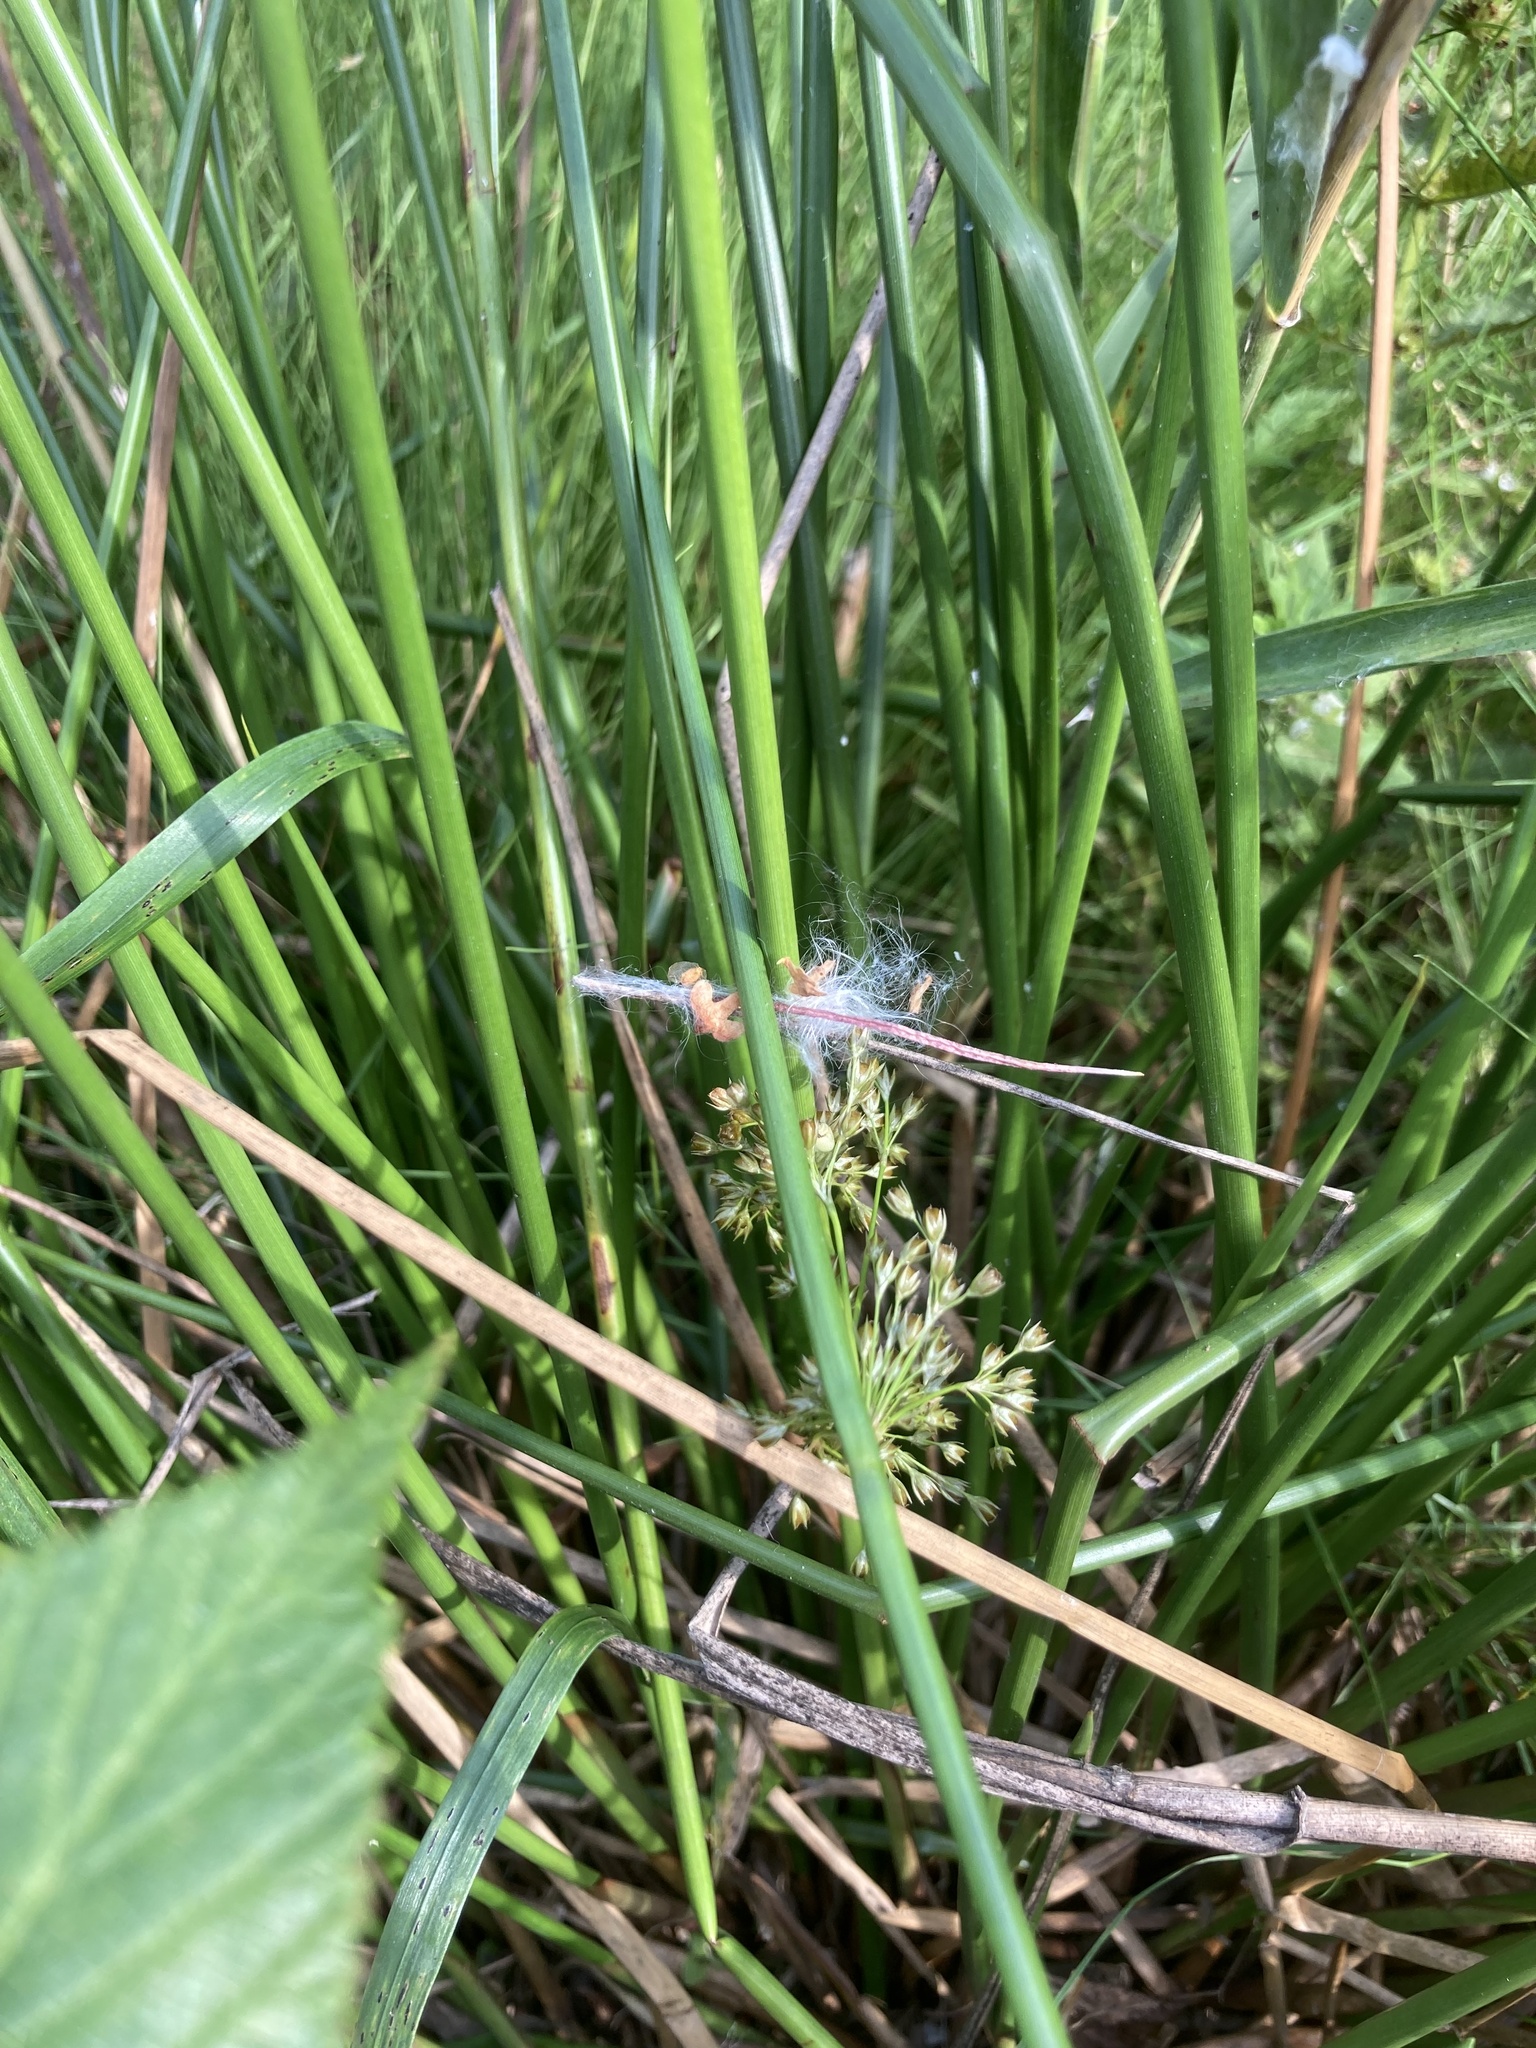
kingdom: Plantae
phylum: Tracheophyta
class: Liliopsida
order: Poales
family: Juncaceae
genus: Juncus
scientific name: Juncus effusus
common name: Soft rush
